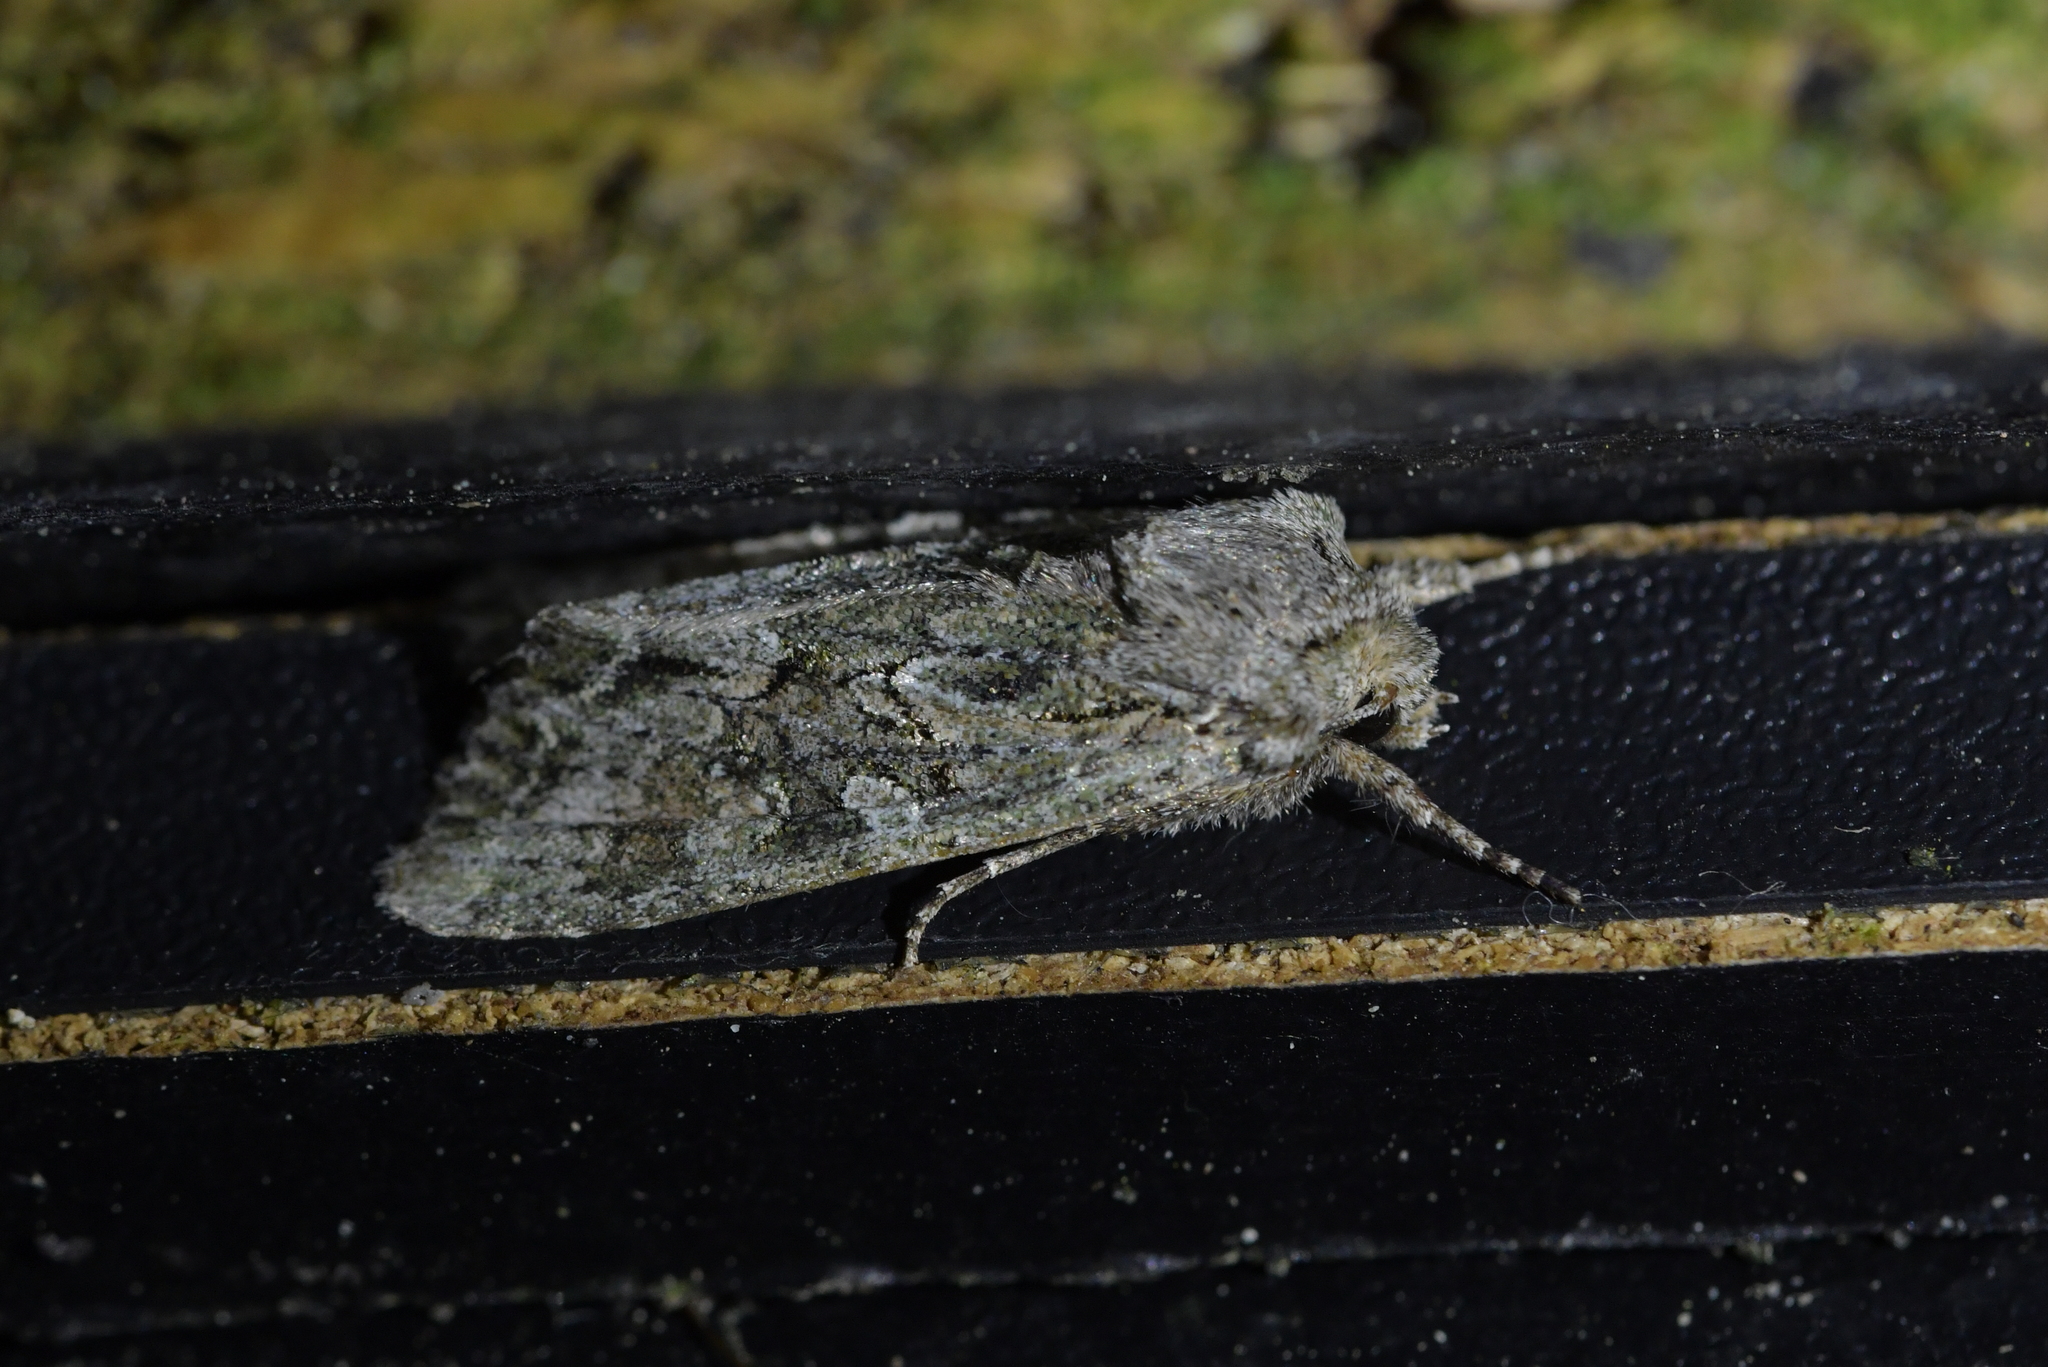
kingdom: Animalia
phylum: Arthropoda
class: Insecta
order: Lepidoptera
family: Noctuidae
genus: Ichneutica
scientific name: Ichneutica mutans
